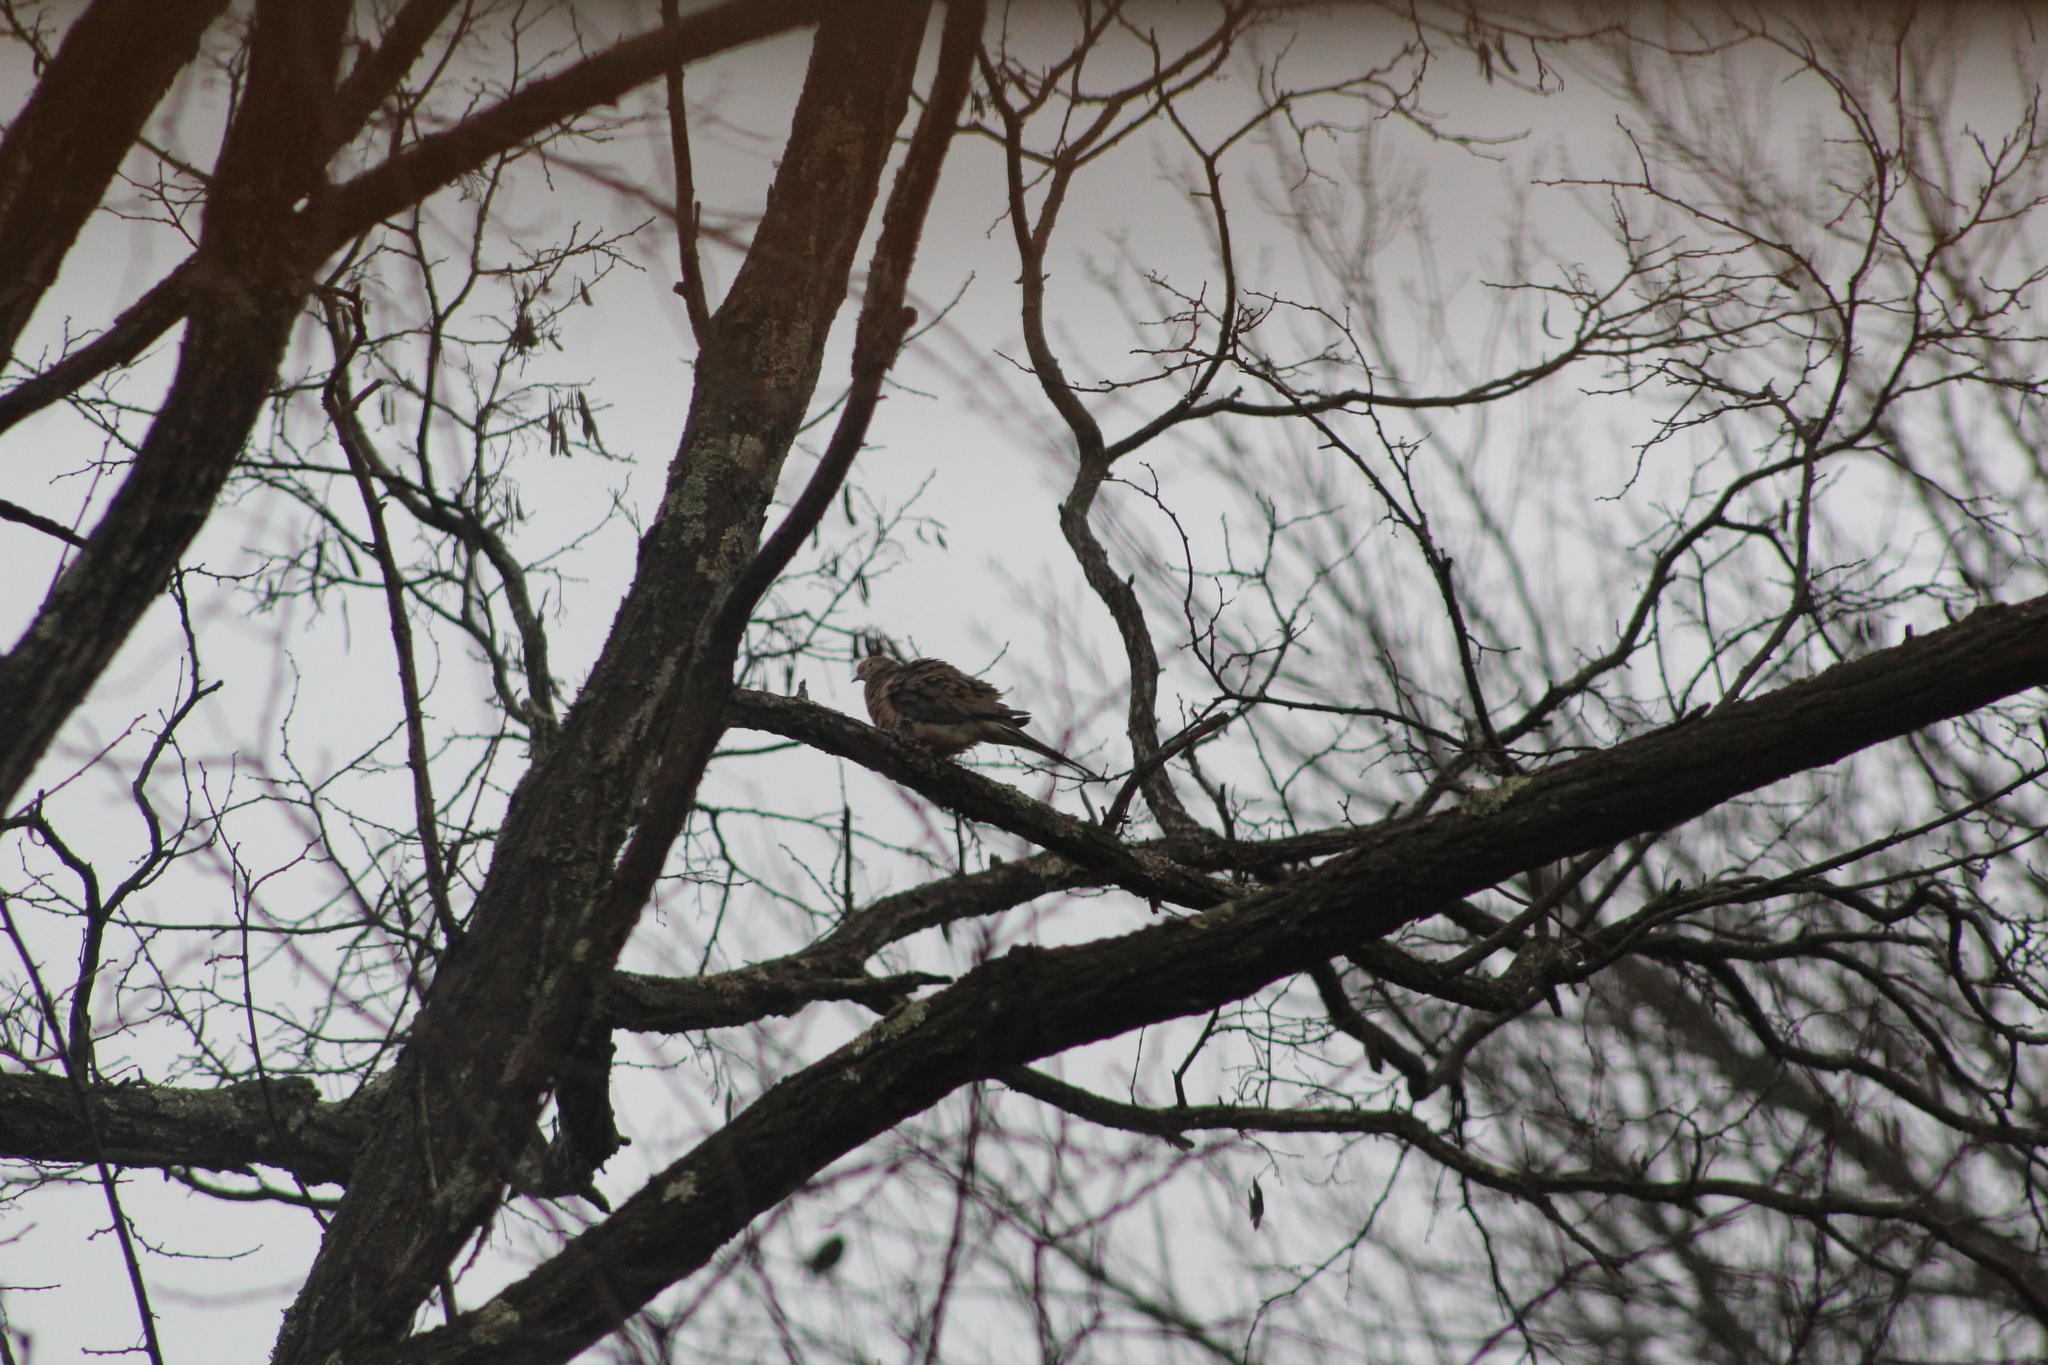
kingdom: Animalia
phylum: Chordata
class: Aves
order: Columbiformes
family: Columbidae
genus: Zenaida
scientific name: Zenaida macroura
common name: Mourning dove
